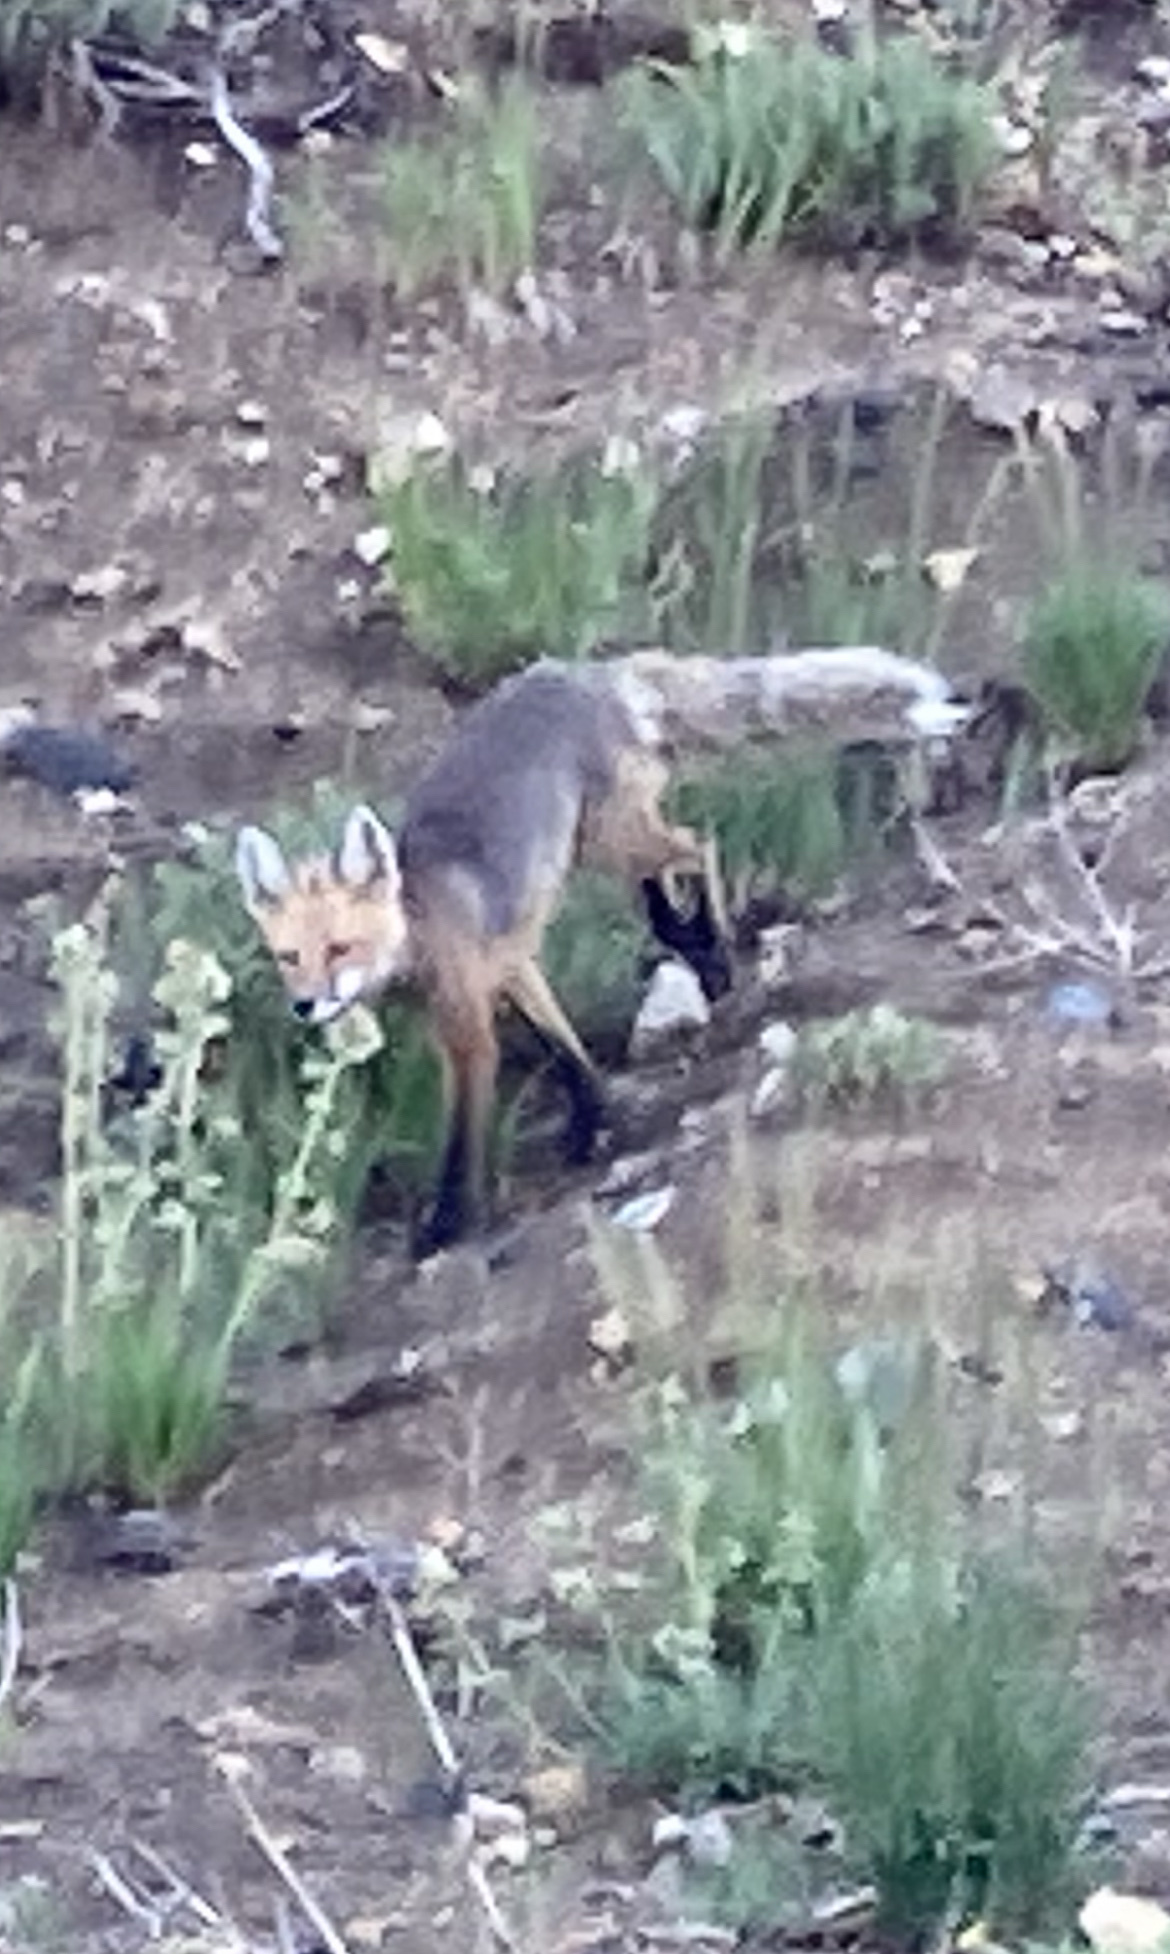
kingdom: Animalia
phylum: Chordata
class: Mammalia
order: Carnivora
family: Canidae
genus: Vulpes
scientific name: Vulpes vulpes
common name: Red fox
